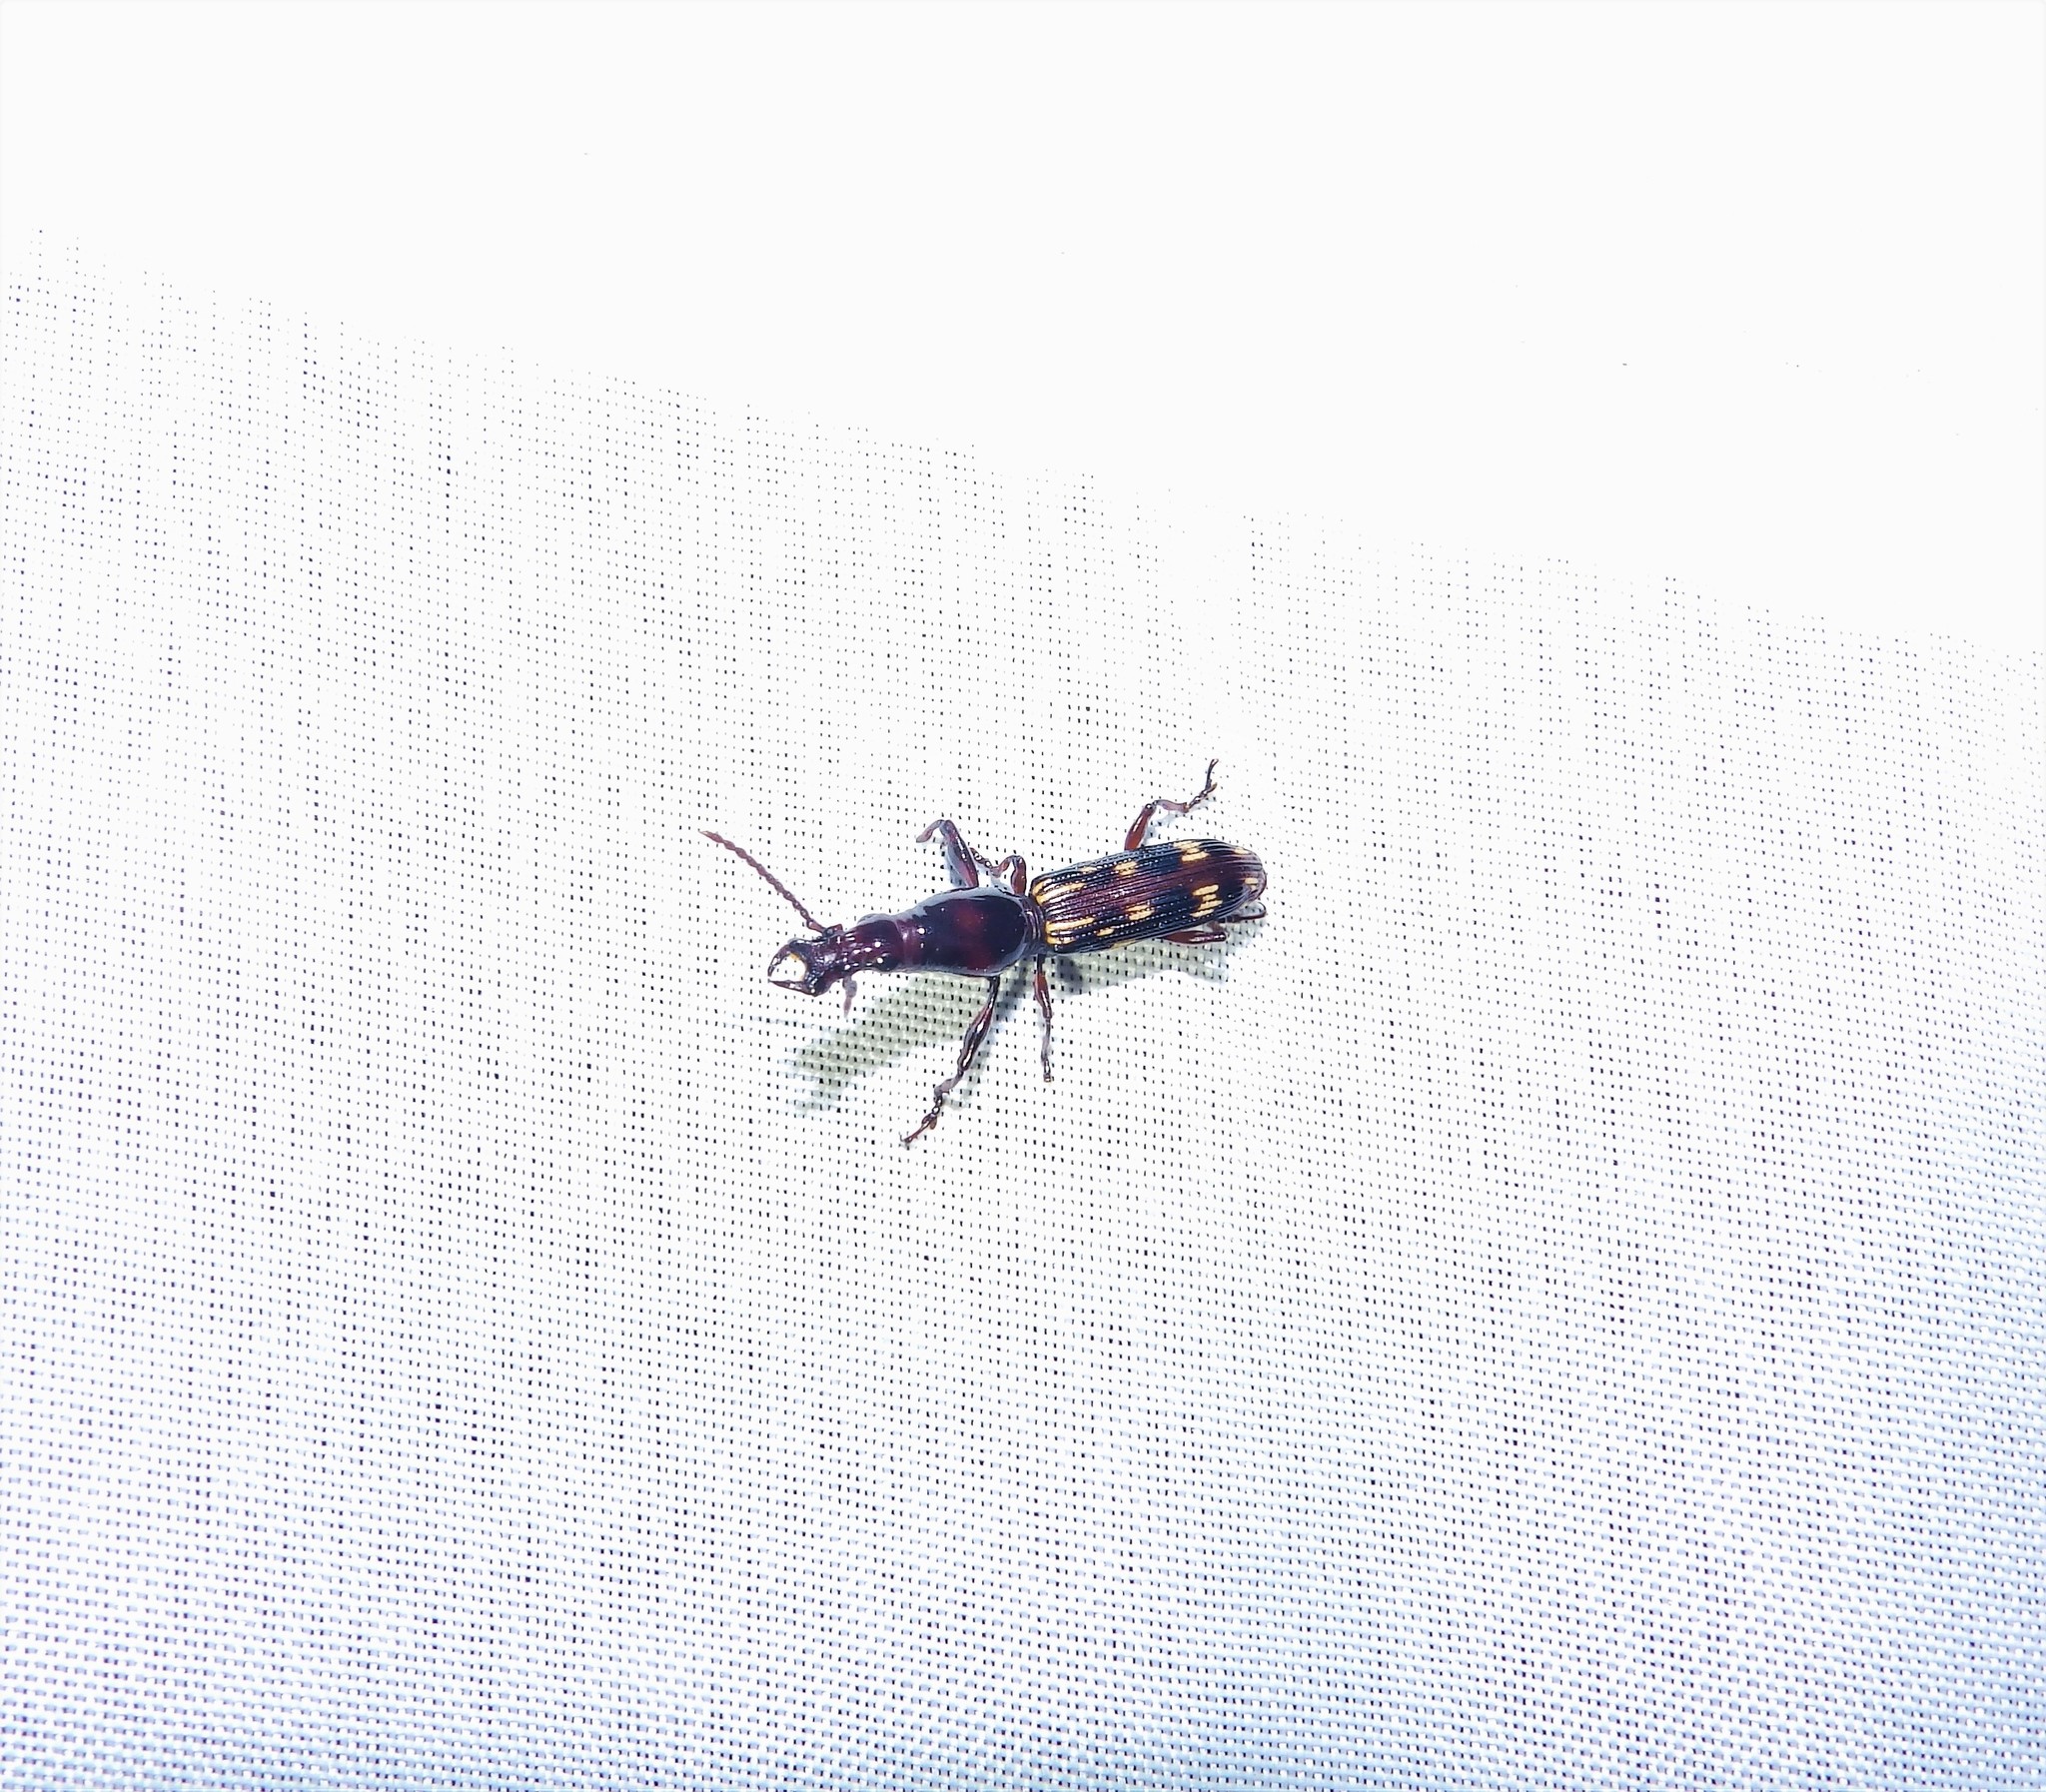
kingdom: Animalia
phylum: Arthropoda
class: Insecta
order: Coleoptera
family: Brentidae
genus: Arrenodes
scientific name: Arrenodes minutus
